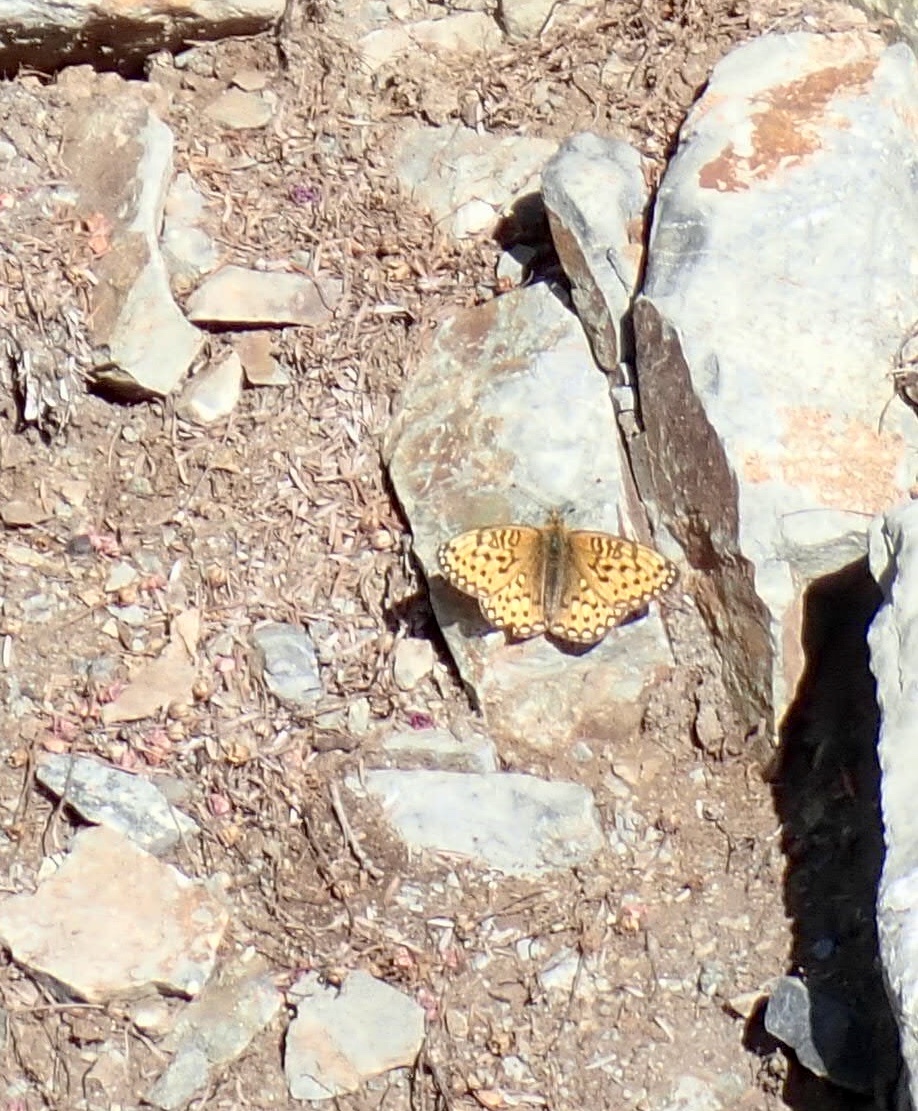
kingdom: Animalia
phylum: Arthropoda
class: Insecta
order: Lepidoptera
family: Nymphalidae
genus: Speyeria
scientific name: Speyeria mormonia
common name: Mormon fritillary
